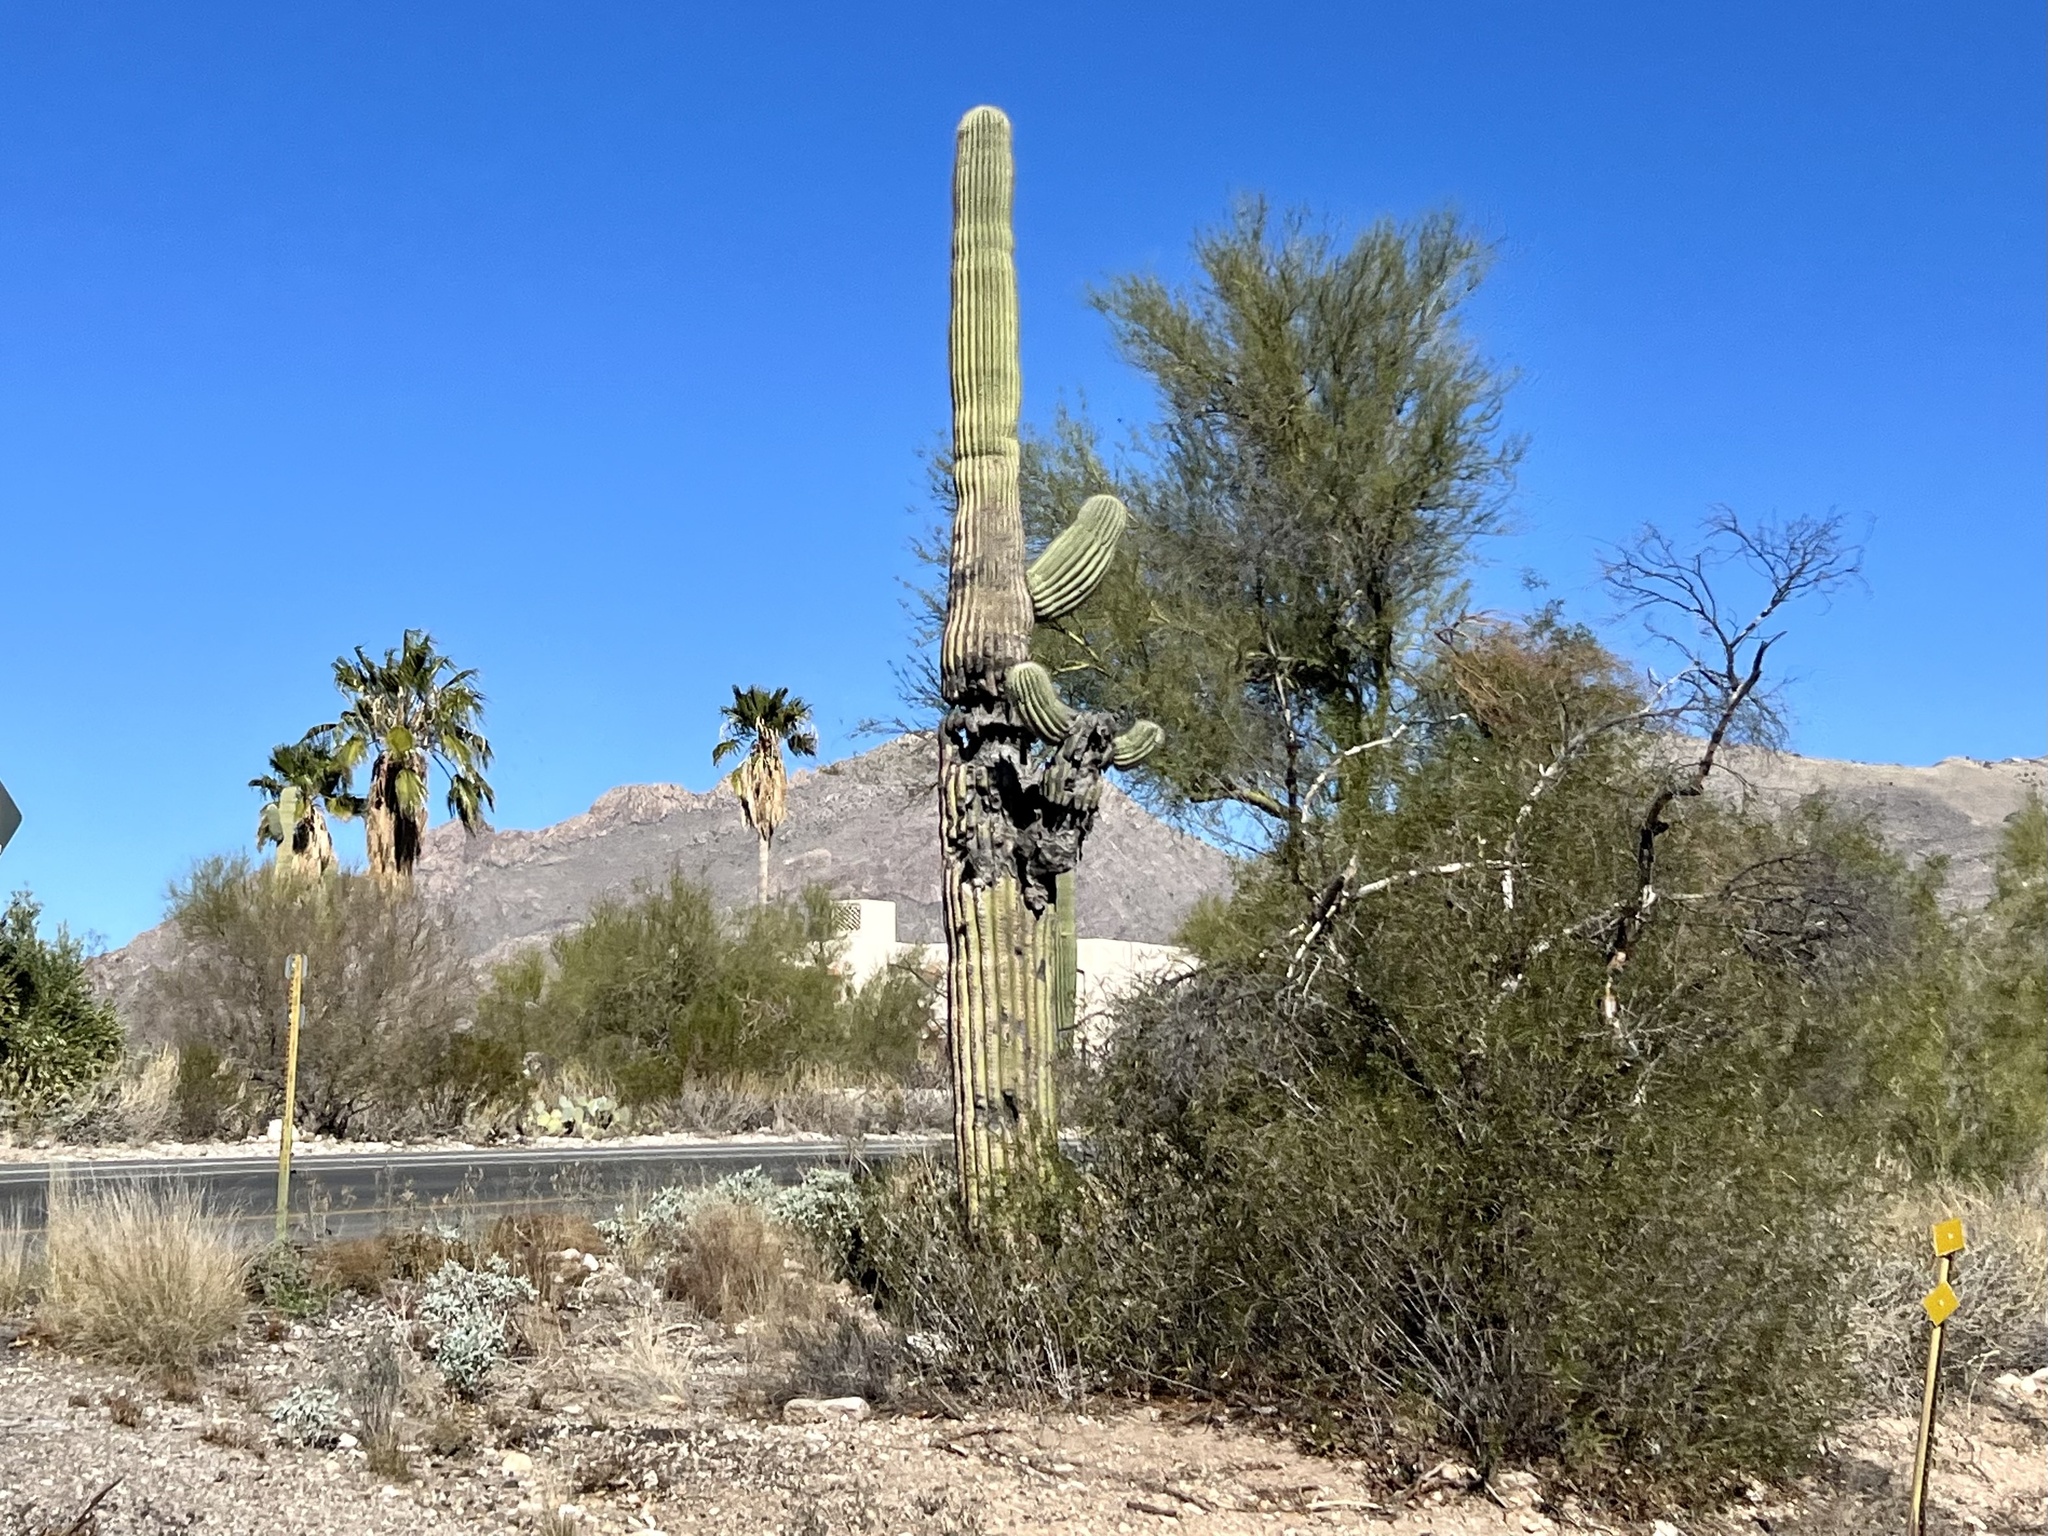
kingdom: Plantae
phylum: Tracheophyta
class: Magnoliopsida
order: Caryophyllales
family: Cactaceae
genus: Carnegiea
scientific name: Carnegiea gigantea
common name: Saguaro
